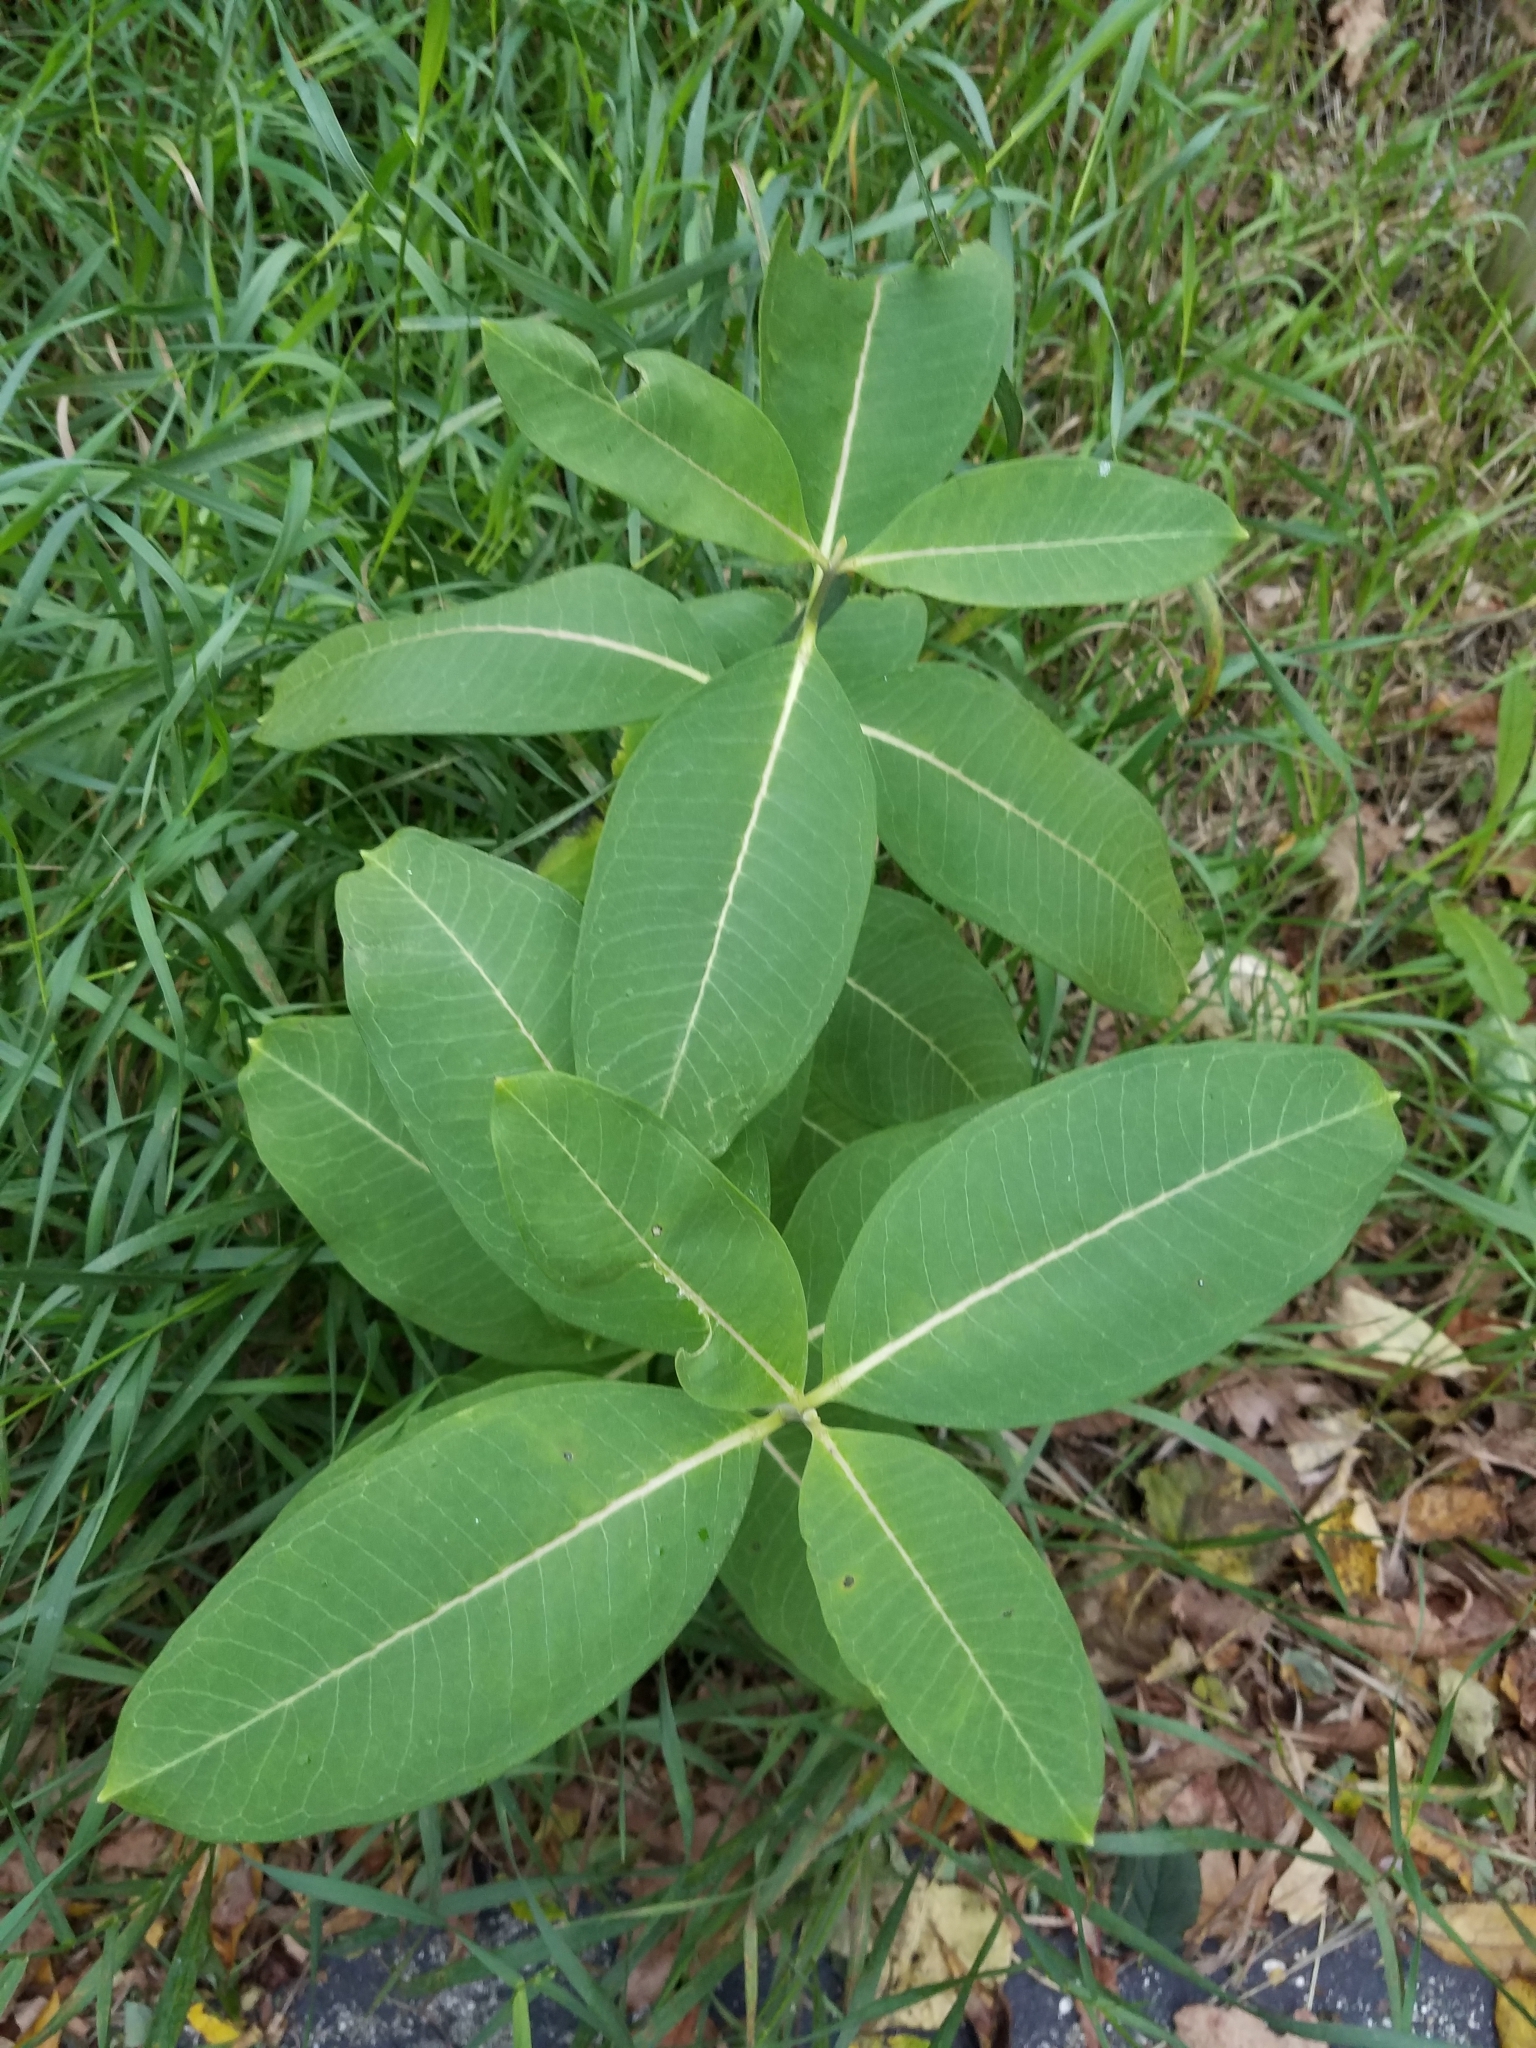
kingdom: Plantae
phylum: Tracheophyta
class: Magnoliopsida
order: Gentianales
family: Apocynaceae
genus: Asclepias
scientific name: Asclepias syriaca
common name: Common milkweed
